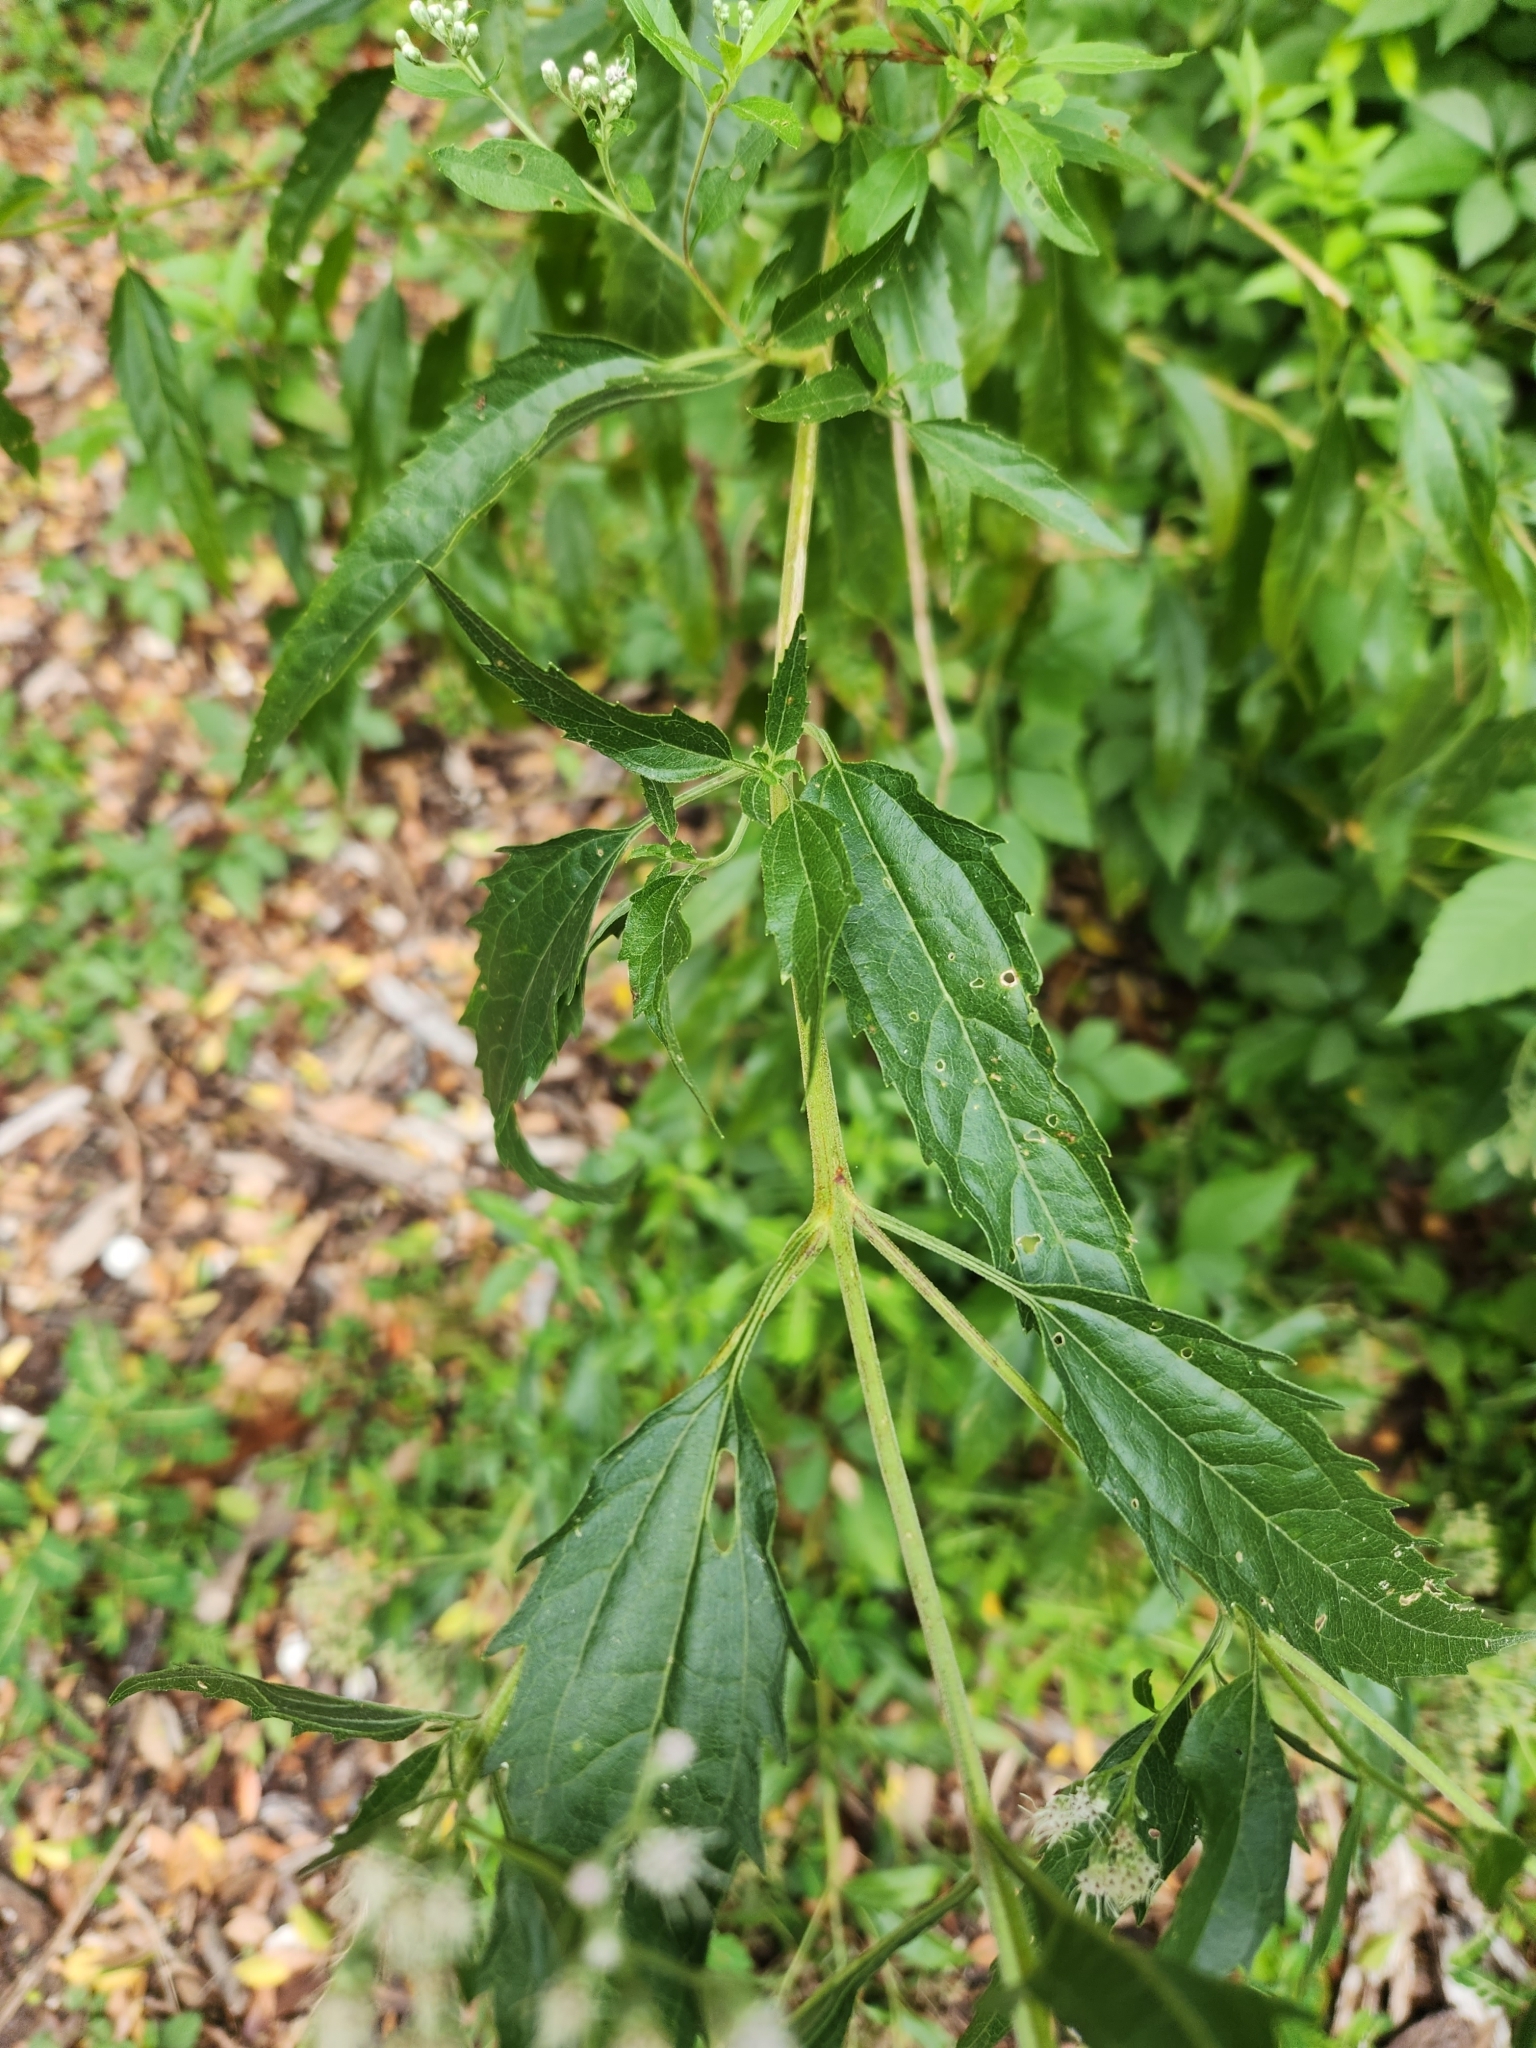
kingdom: Plantae
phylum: Tracheophyta
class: Magnoliopsida
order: Asterales
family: Asteraceae
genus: Eupatorium
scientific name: Eupatorium serotinum
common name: Late boneset
